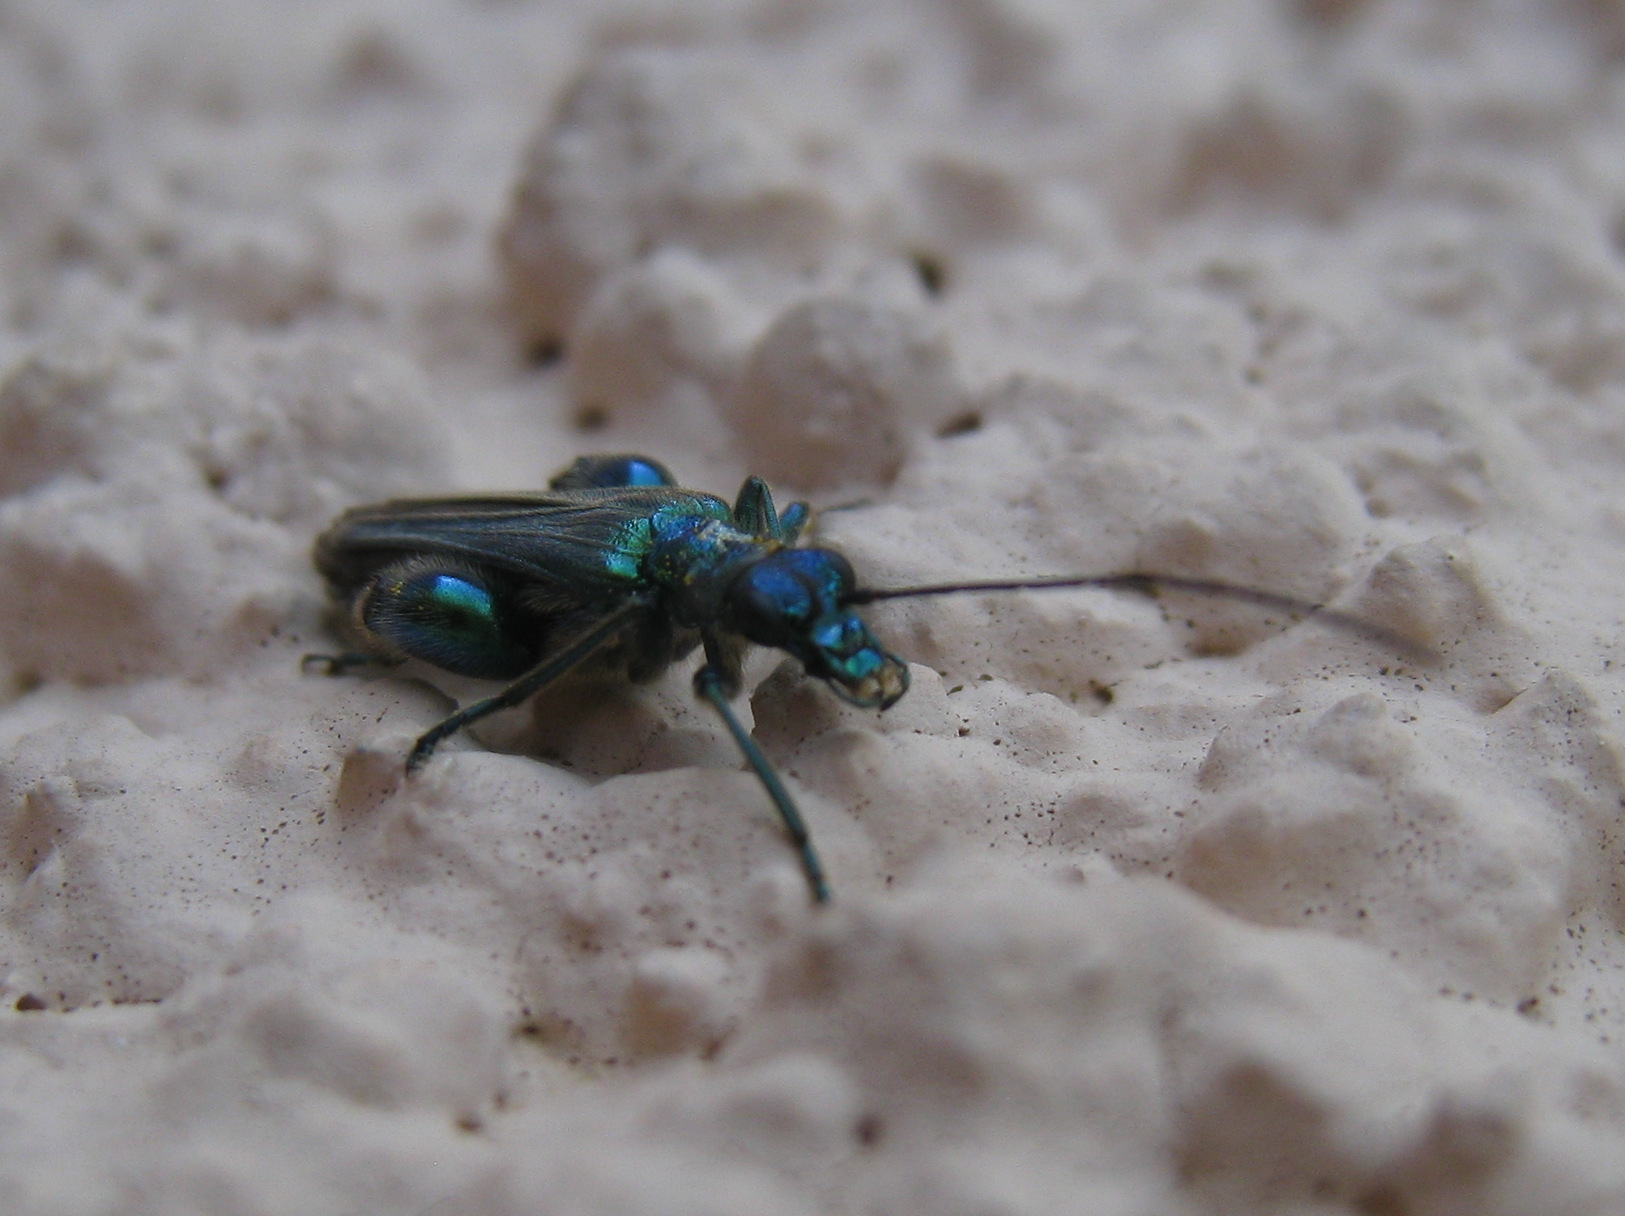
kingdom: Animalia
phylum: Arthropoda
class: Insecta
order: Coleoptera
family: Oedemeridae
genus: Oedemera
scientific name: Oedemera nobilis
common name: Swollen-thighed beetle
